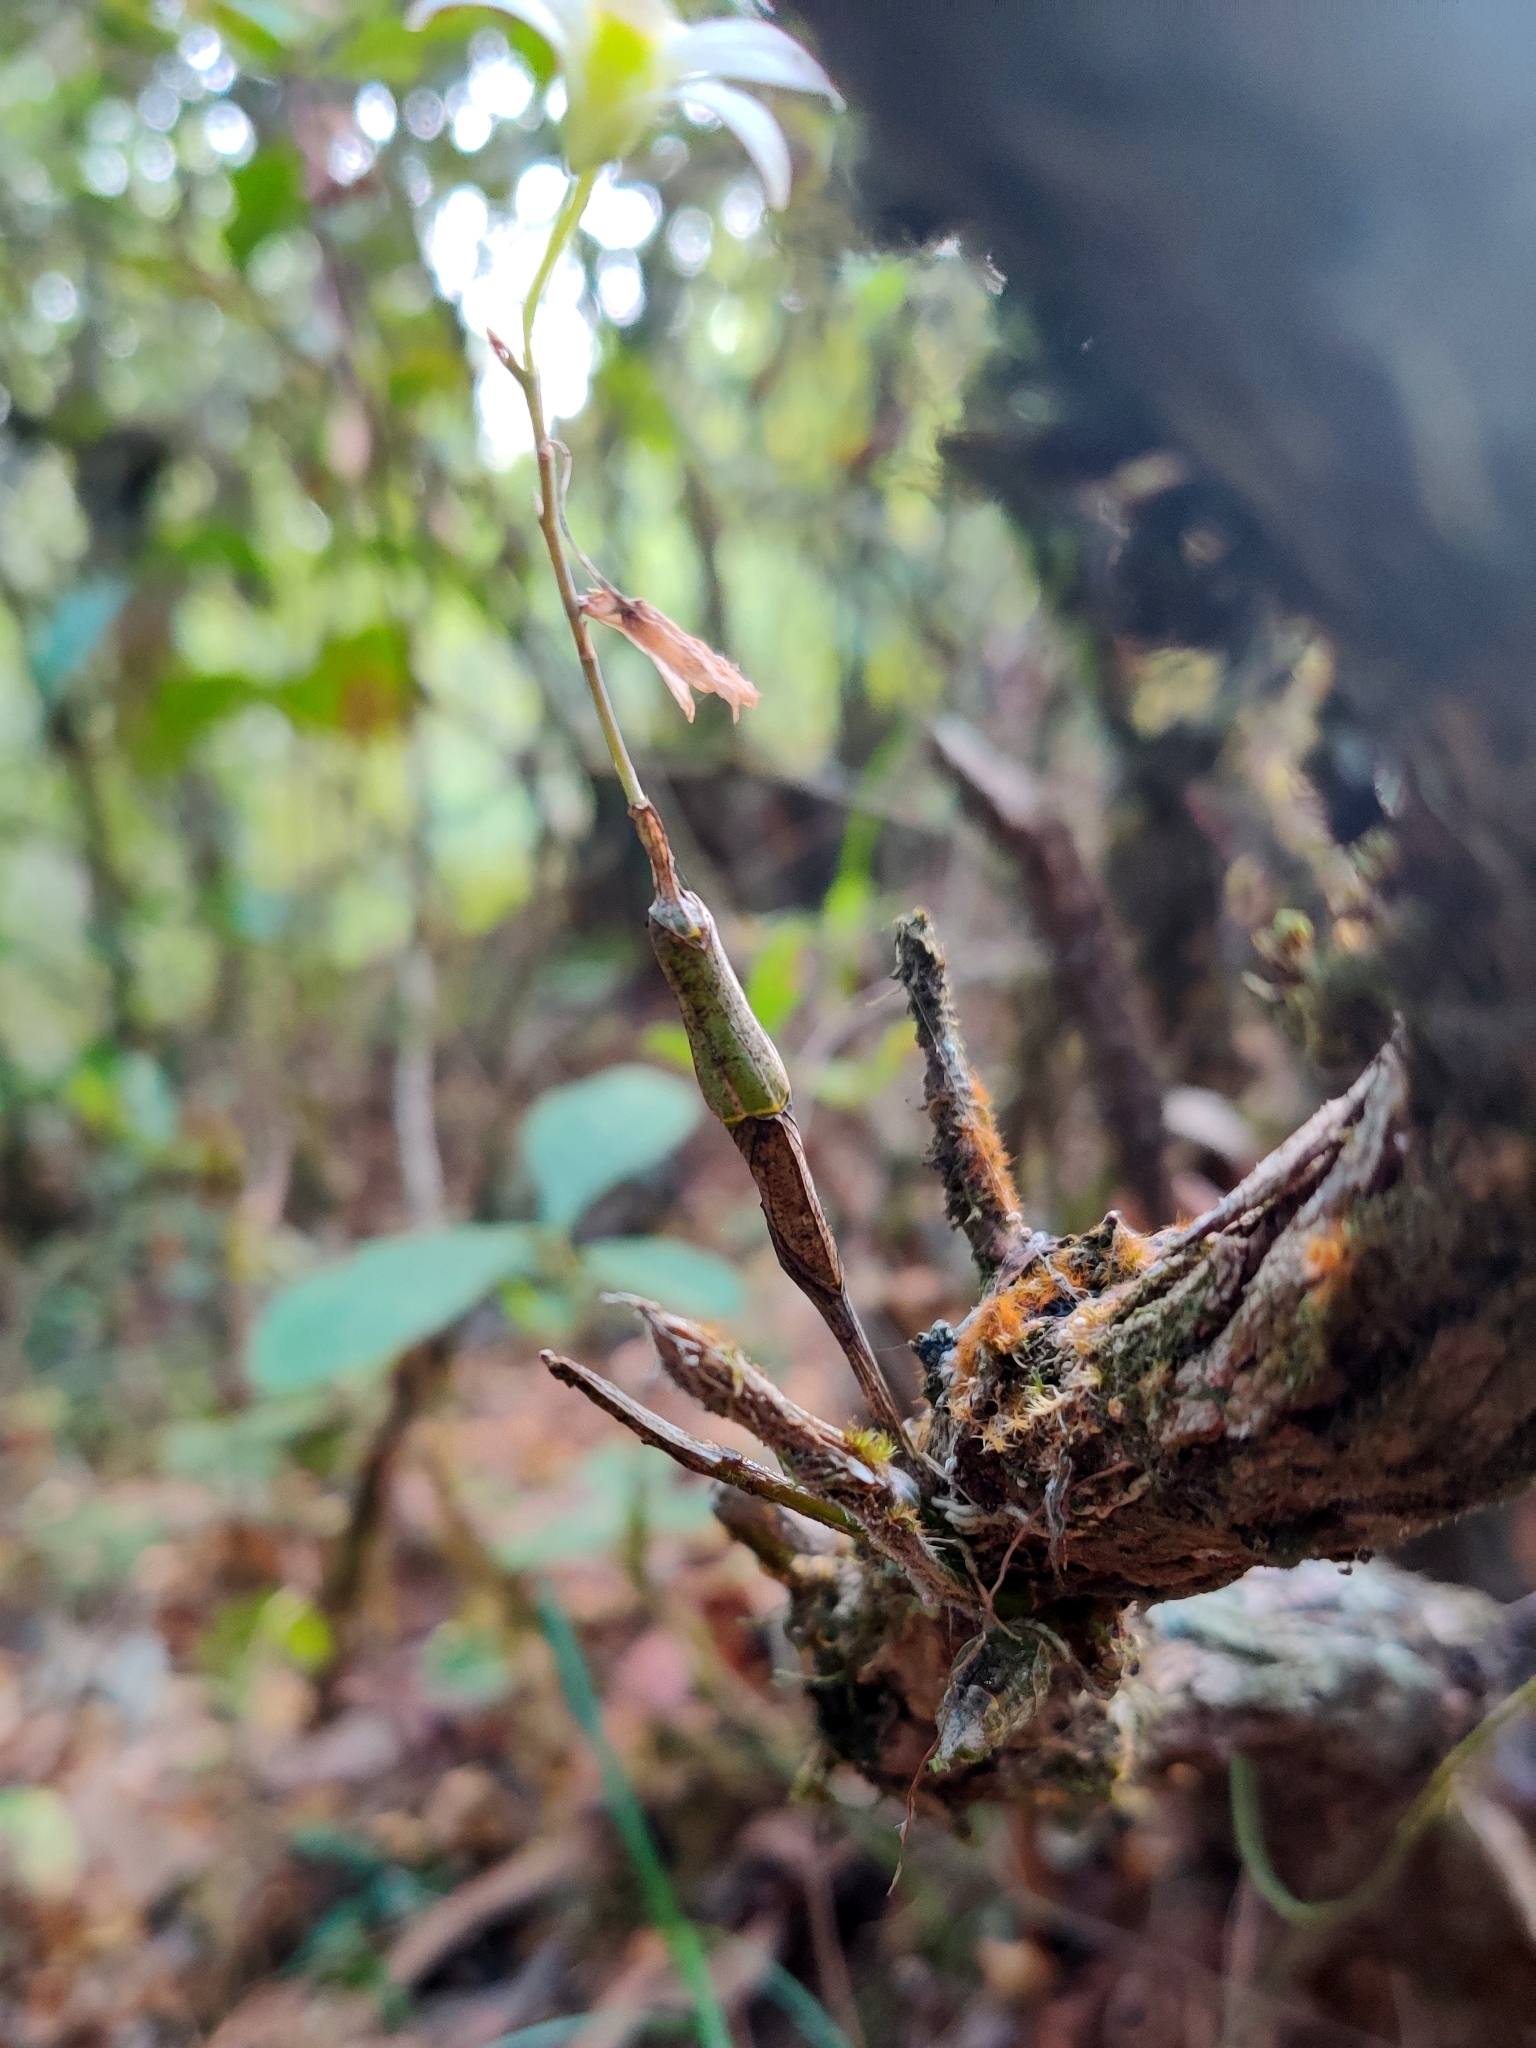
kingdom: Plantae
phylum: Tracheophyta
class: Liliopsida
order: Asparagales
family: Orchidaceae
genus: Dendrobium
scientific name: Dendrobium ovatum
